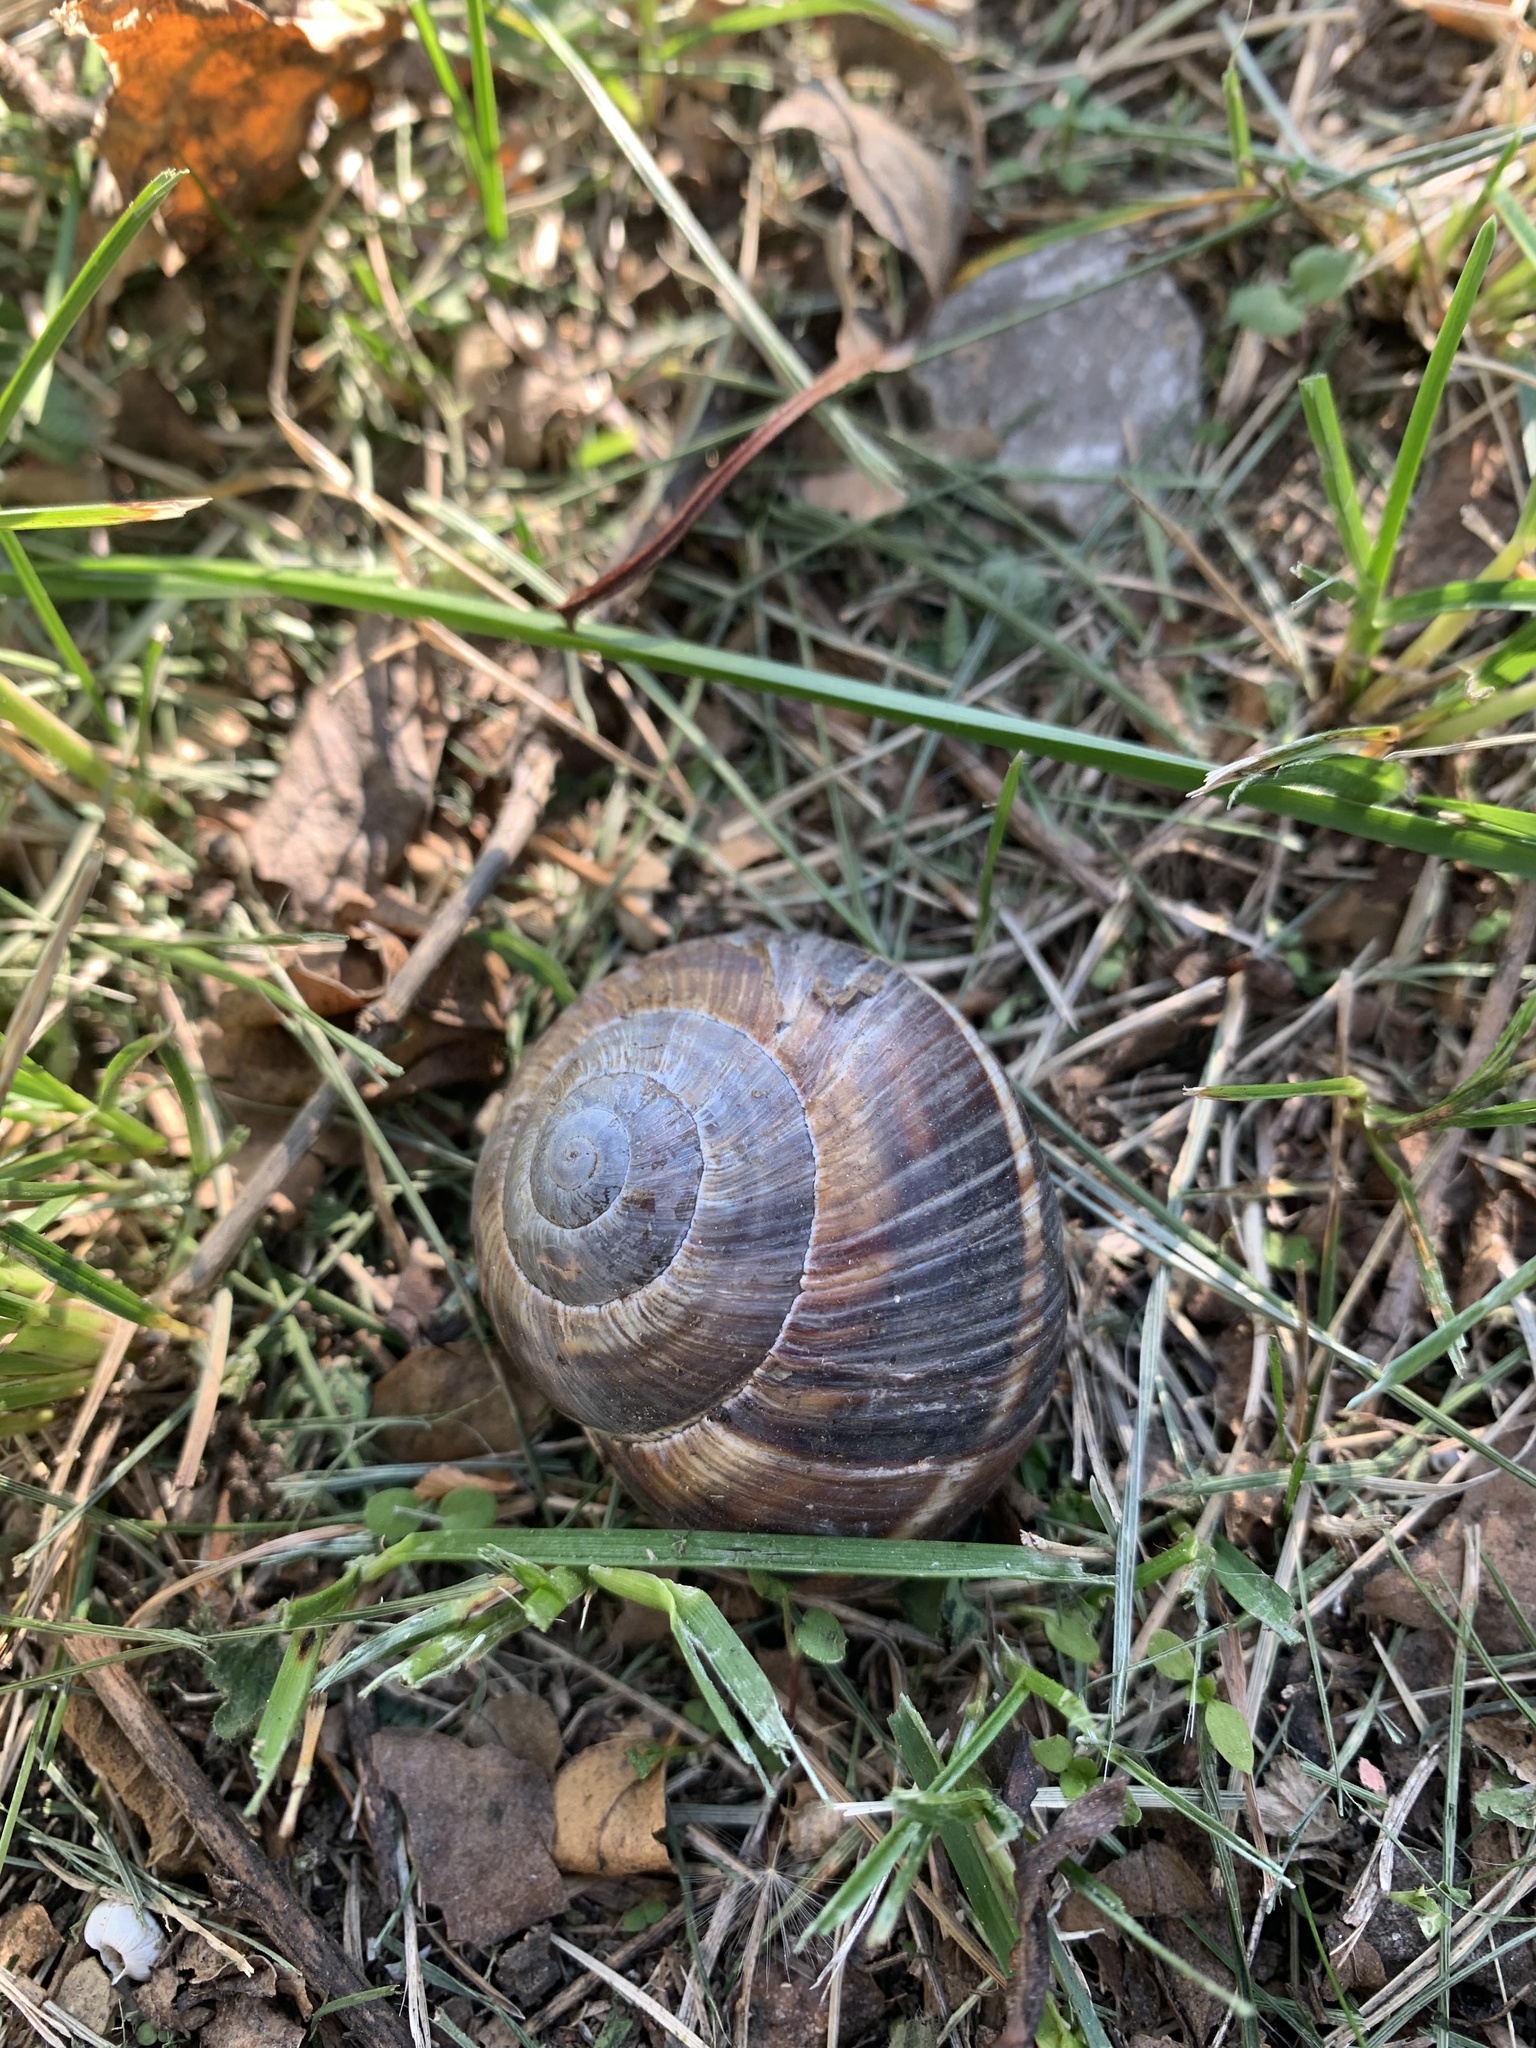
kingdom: Animalia
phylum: Mollusca
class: Gastropoda
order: Stylommatophora
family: Helicidae
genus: Helix
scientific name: Helix lucorum
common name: Turkish snail
